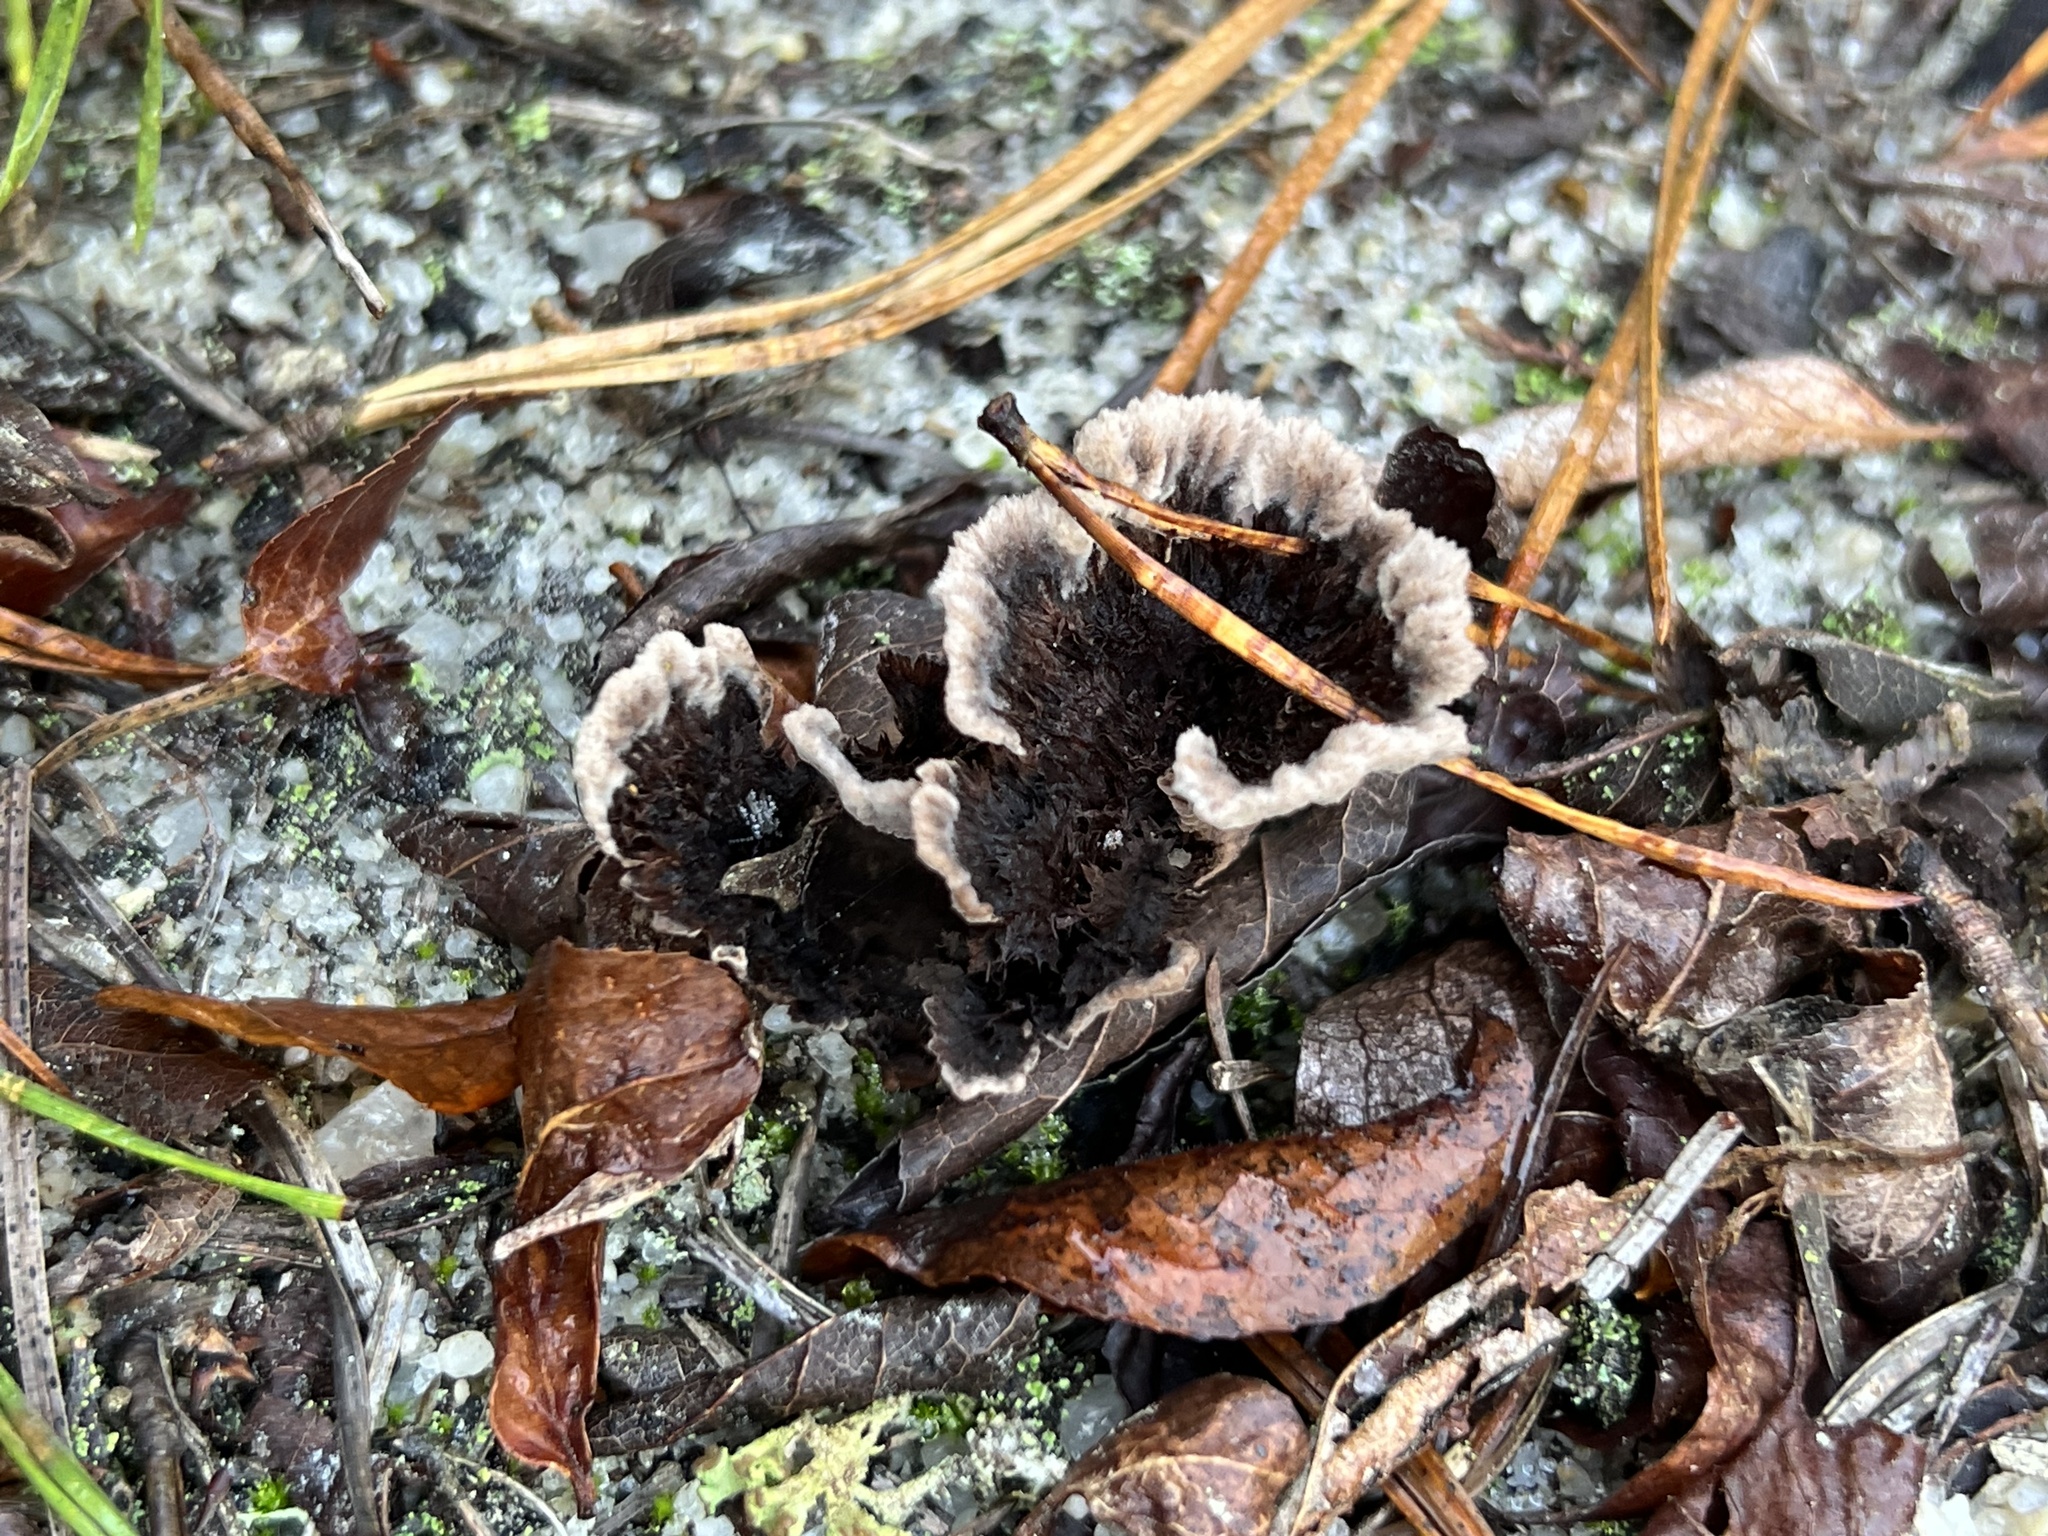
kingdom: Fungi
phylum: Basidiomycota
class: Agaricomycetes
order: Thelephorales
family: Thelephoraceae
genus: Thelephora
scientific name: Thelephora terrestris
